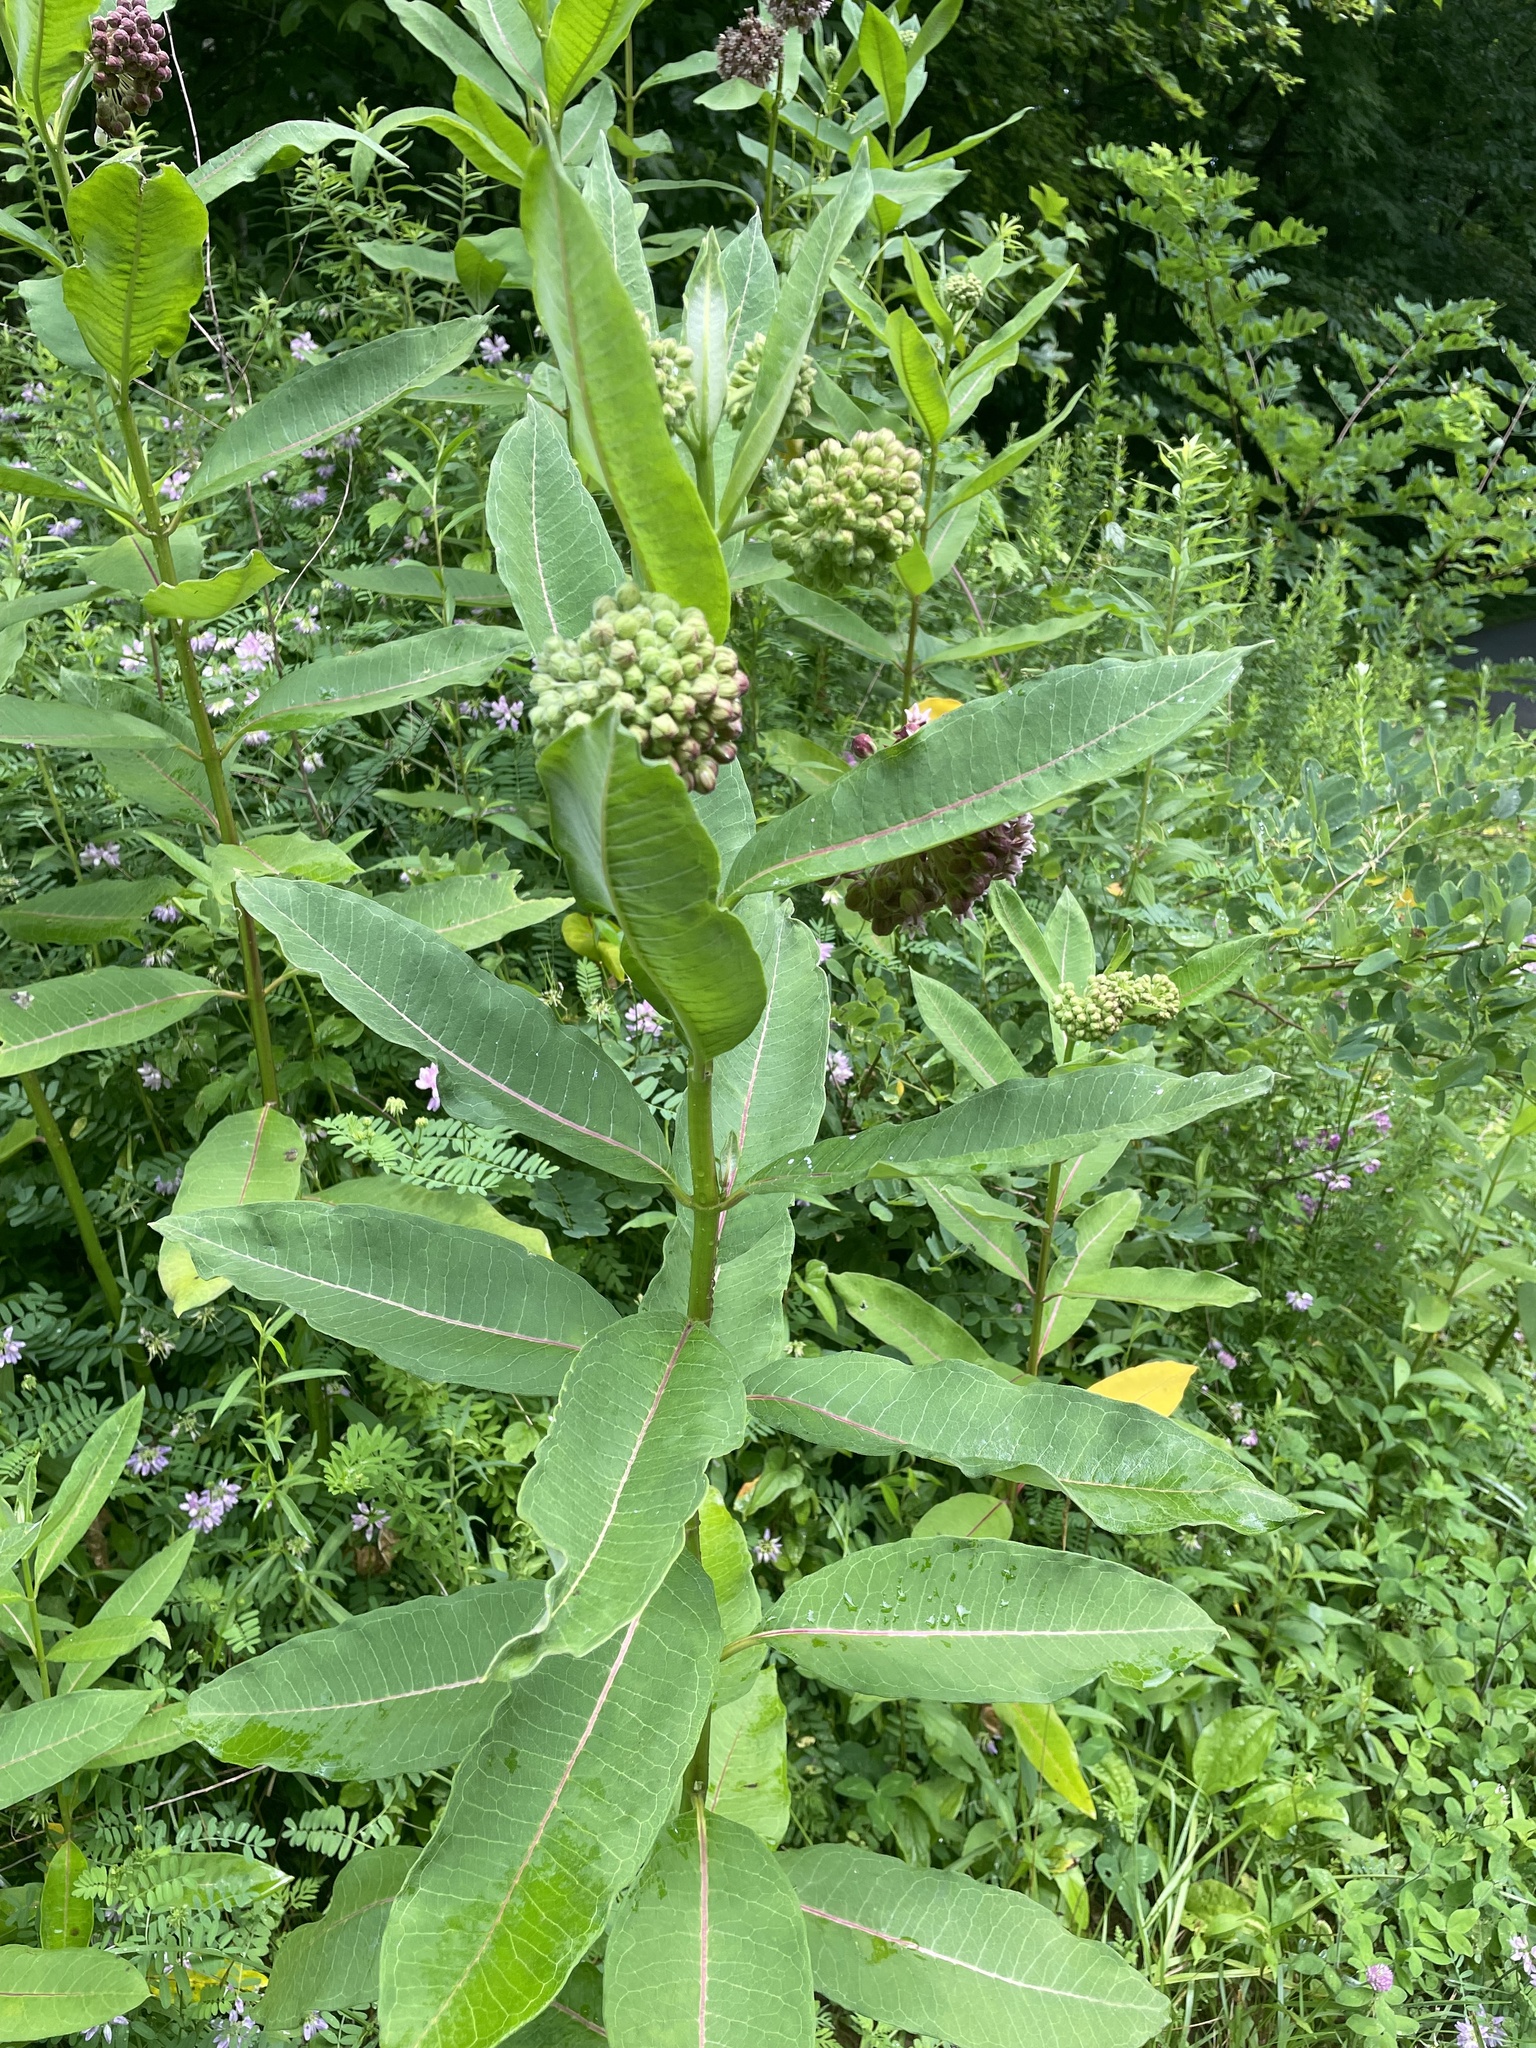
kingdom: Plantae
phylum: Tracheophyta
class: Magnoliopsida
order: Gentianales
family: Apocynaceae
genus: Asclepias
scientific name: Asclepias syriaca
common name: Common milkweed
